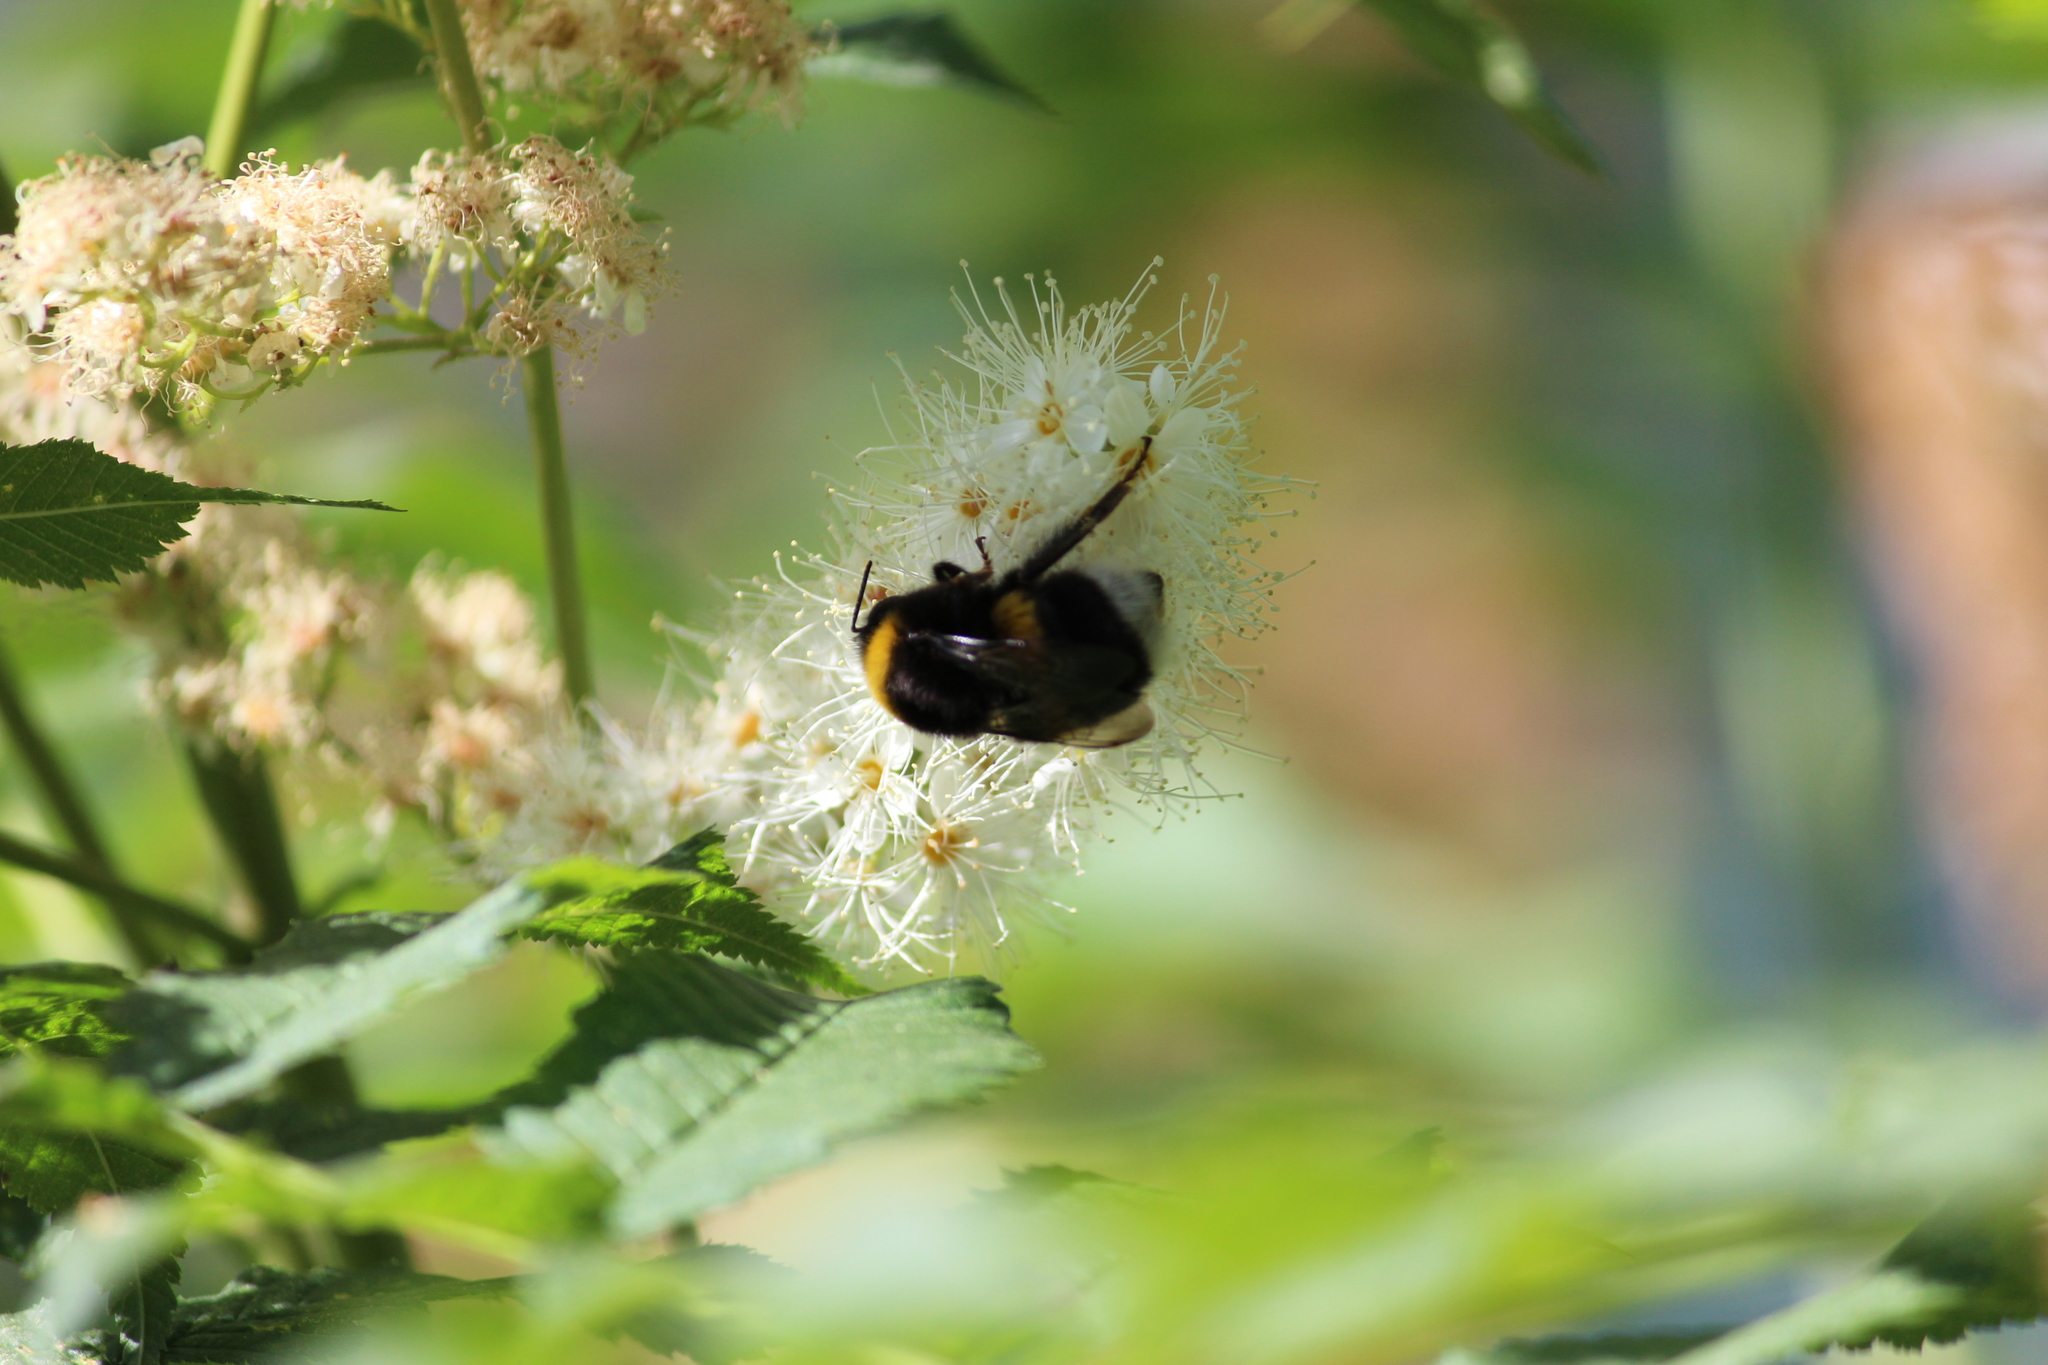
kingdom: Animalia
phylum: Arthropoda
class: Insecta
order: Hymenoptera
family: Apidae
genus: Bombus
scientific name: Bombus
